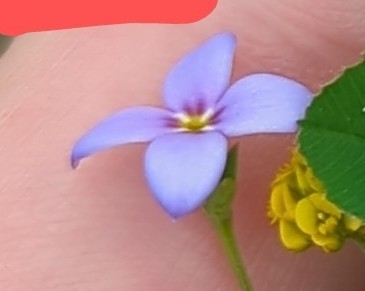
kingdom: Plantae
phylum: Tracheophyta
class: Magnoliopsida
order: Gentianales
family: Rubiaceae
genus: Houstonia
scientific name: Houstonia pusilla
